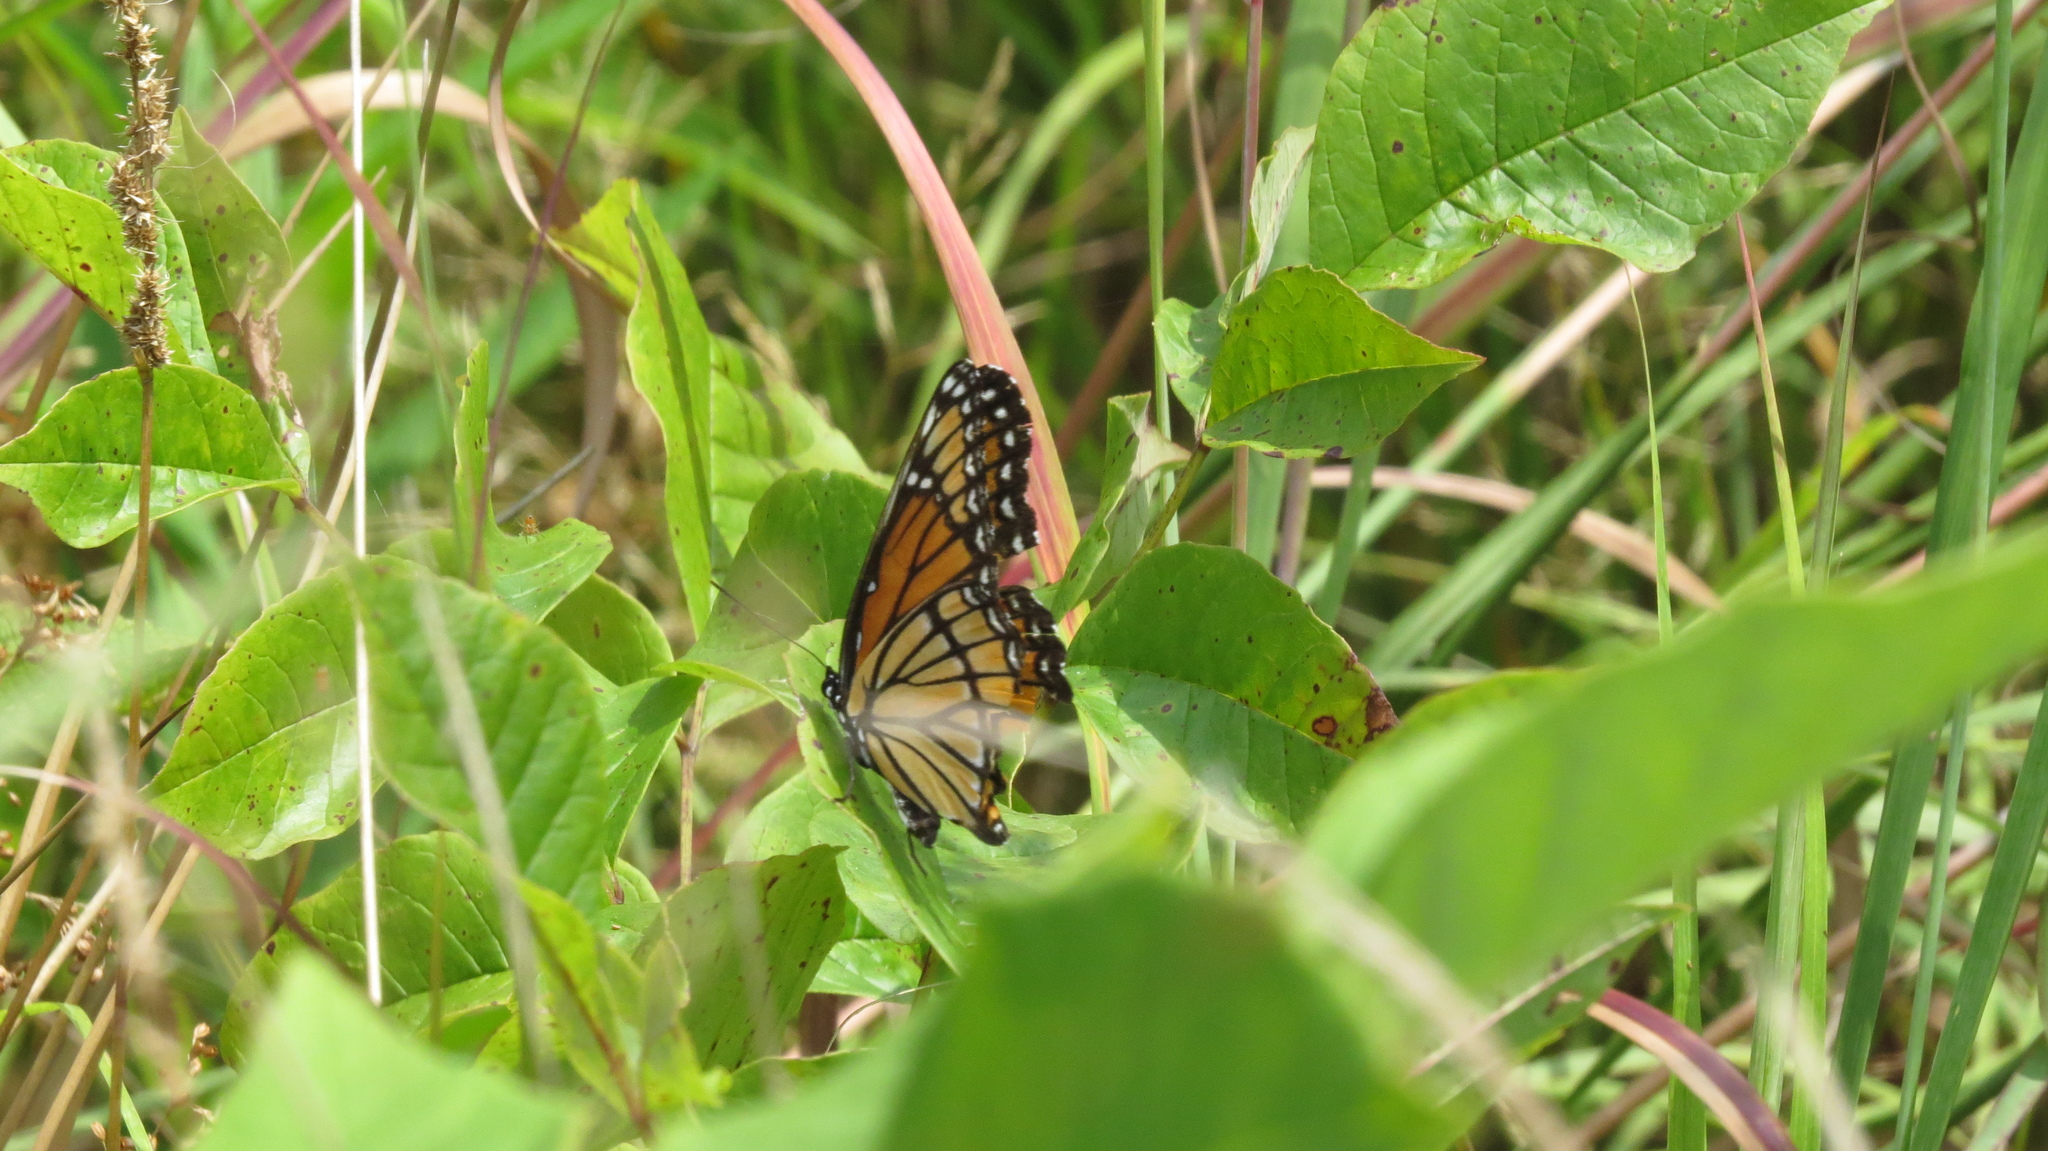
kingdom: Animalia
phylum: Arthropoda
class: Insecta
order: Lepidoptera
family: Nymphalidae
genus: Limenitis
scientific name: Limenitis archippus
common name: Viceroy
